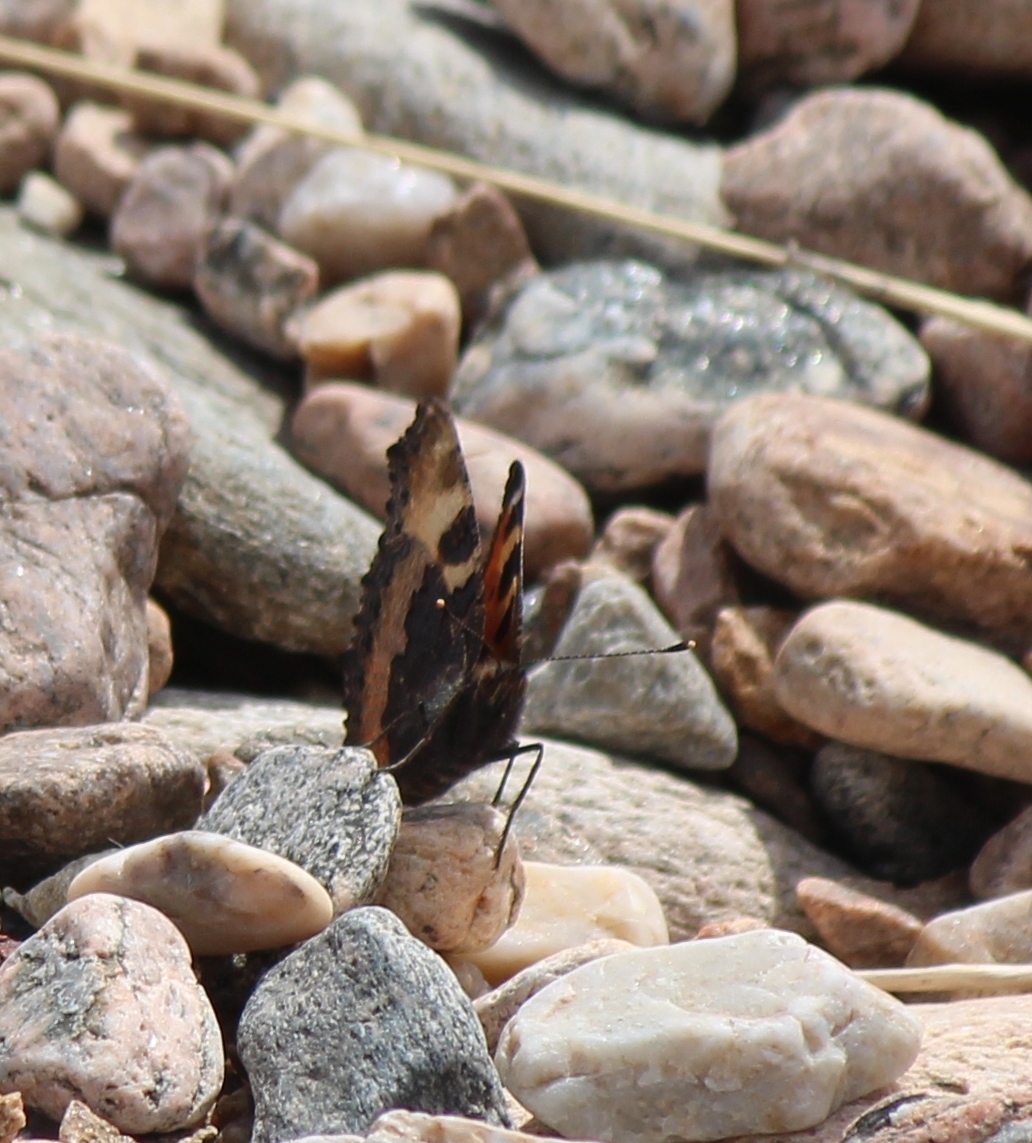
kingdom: Animalia
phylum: Arthropoda
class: Insecta
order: Lepidoptera
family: Nymphalidae
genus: Aglais
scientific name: Aglais urticae
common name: Small tortoiseshell
